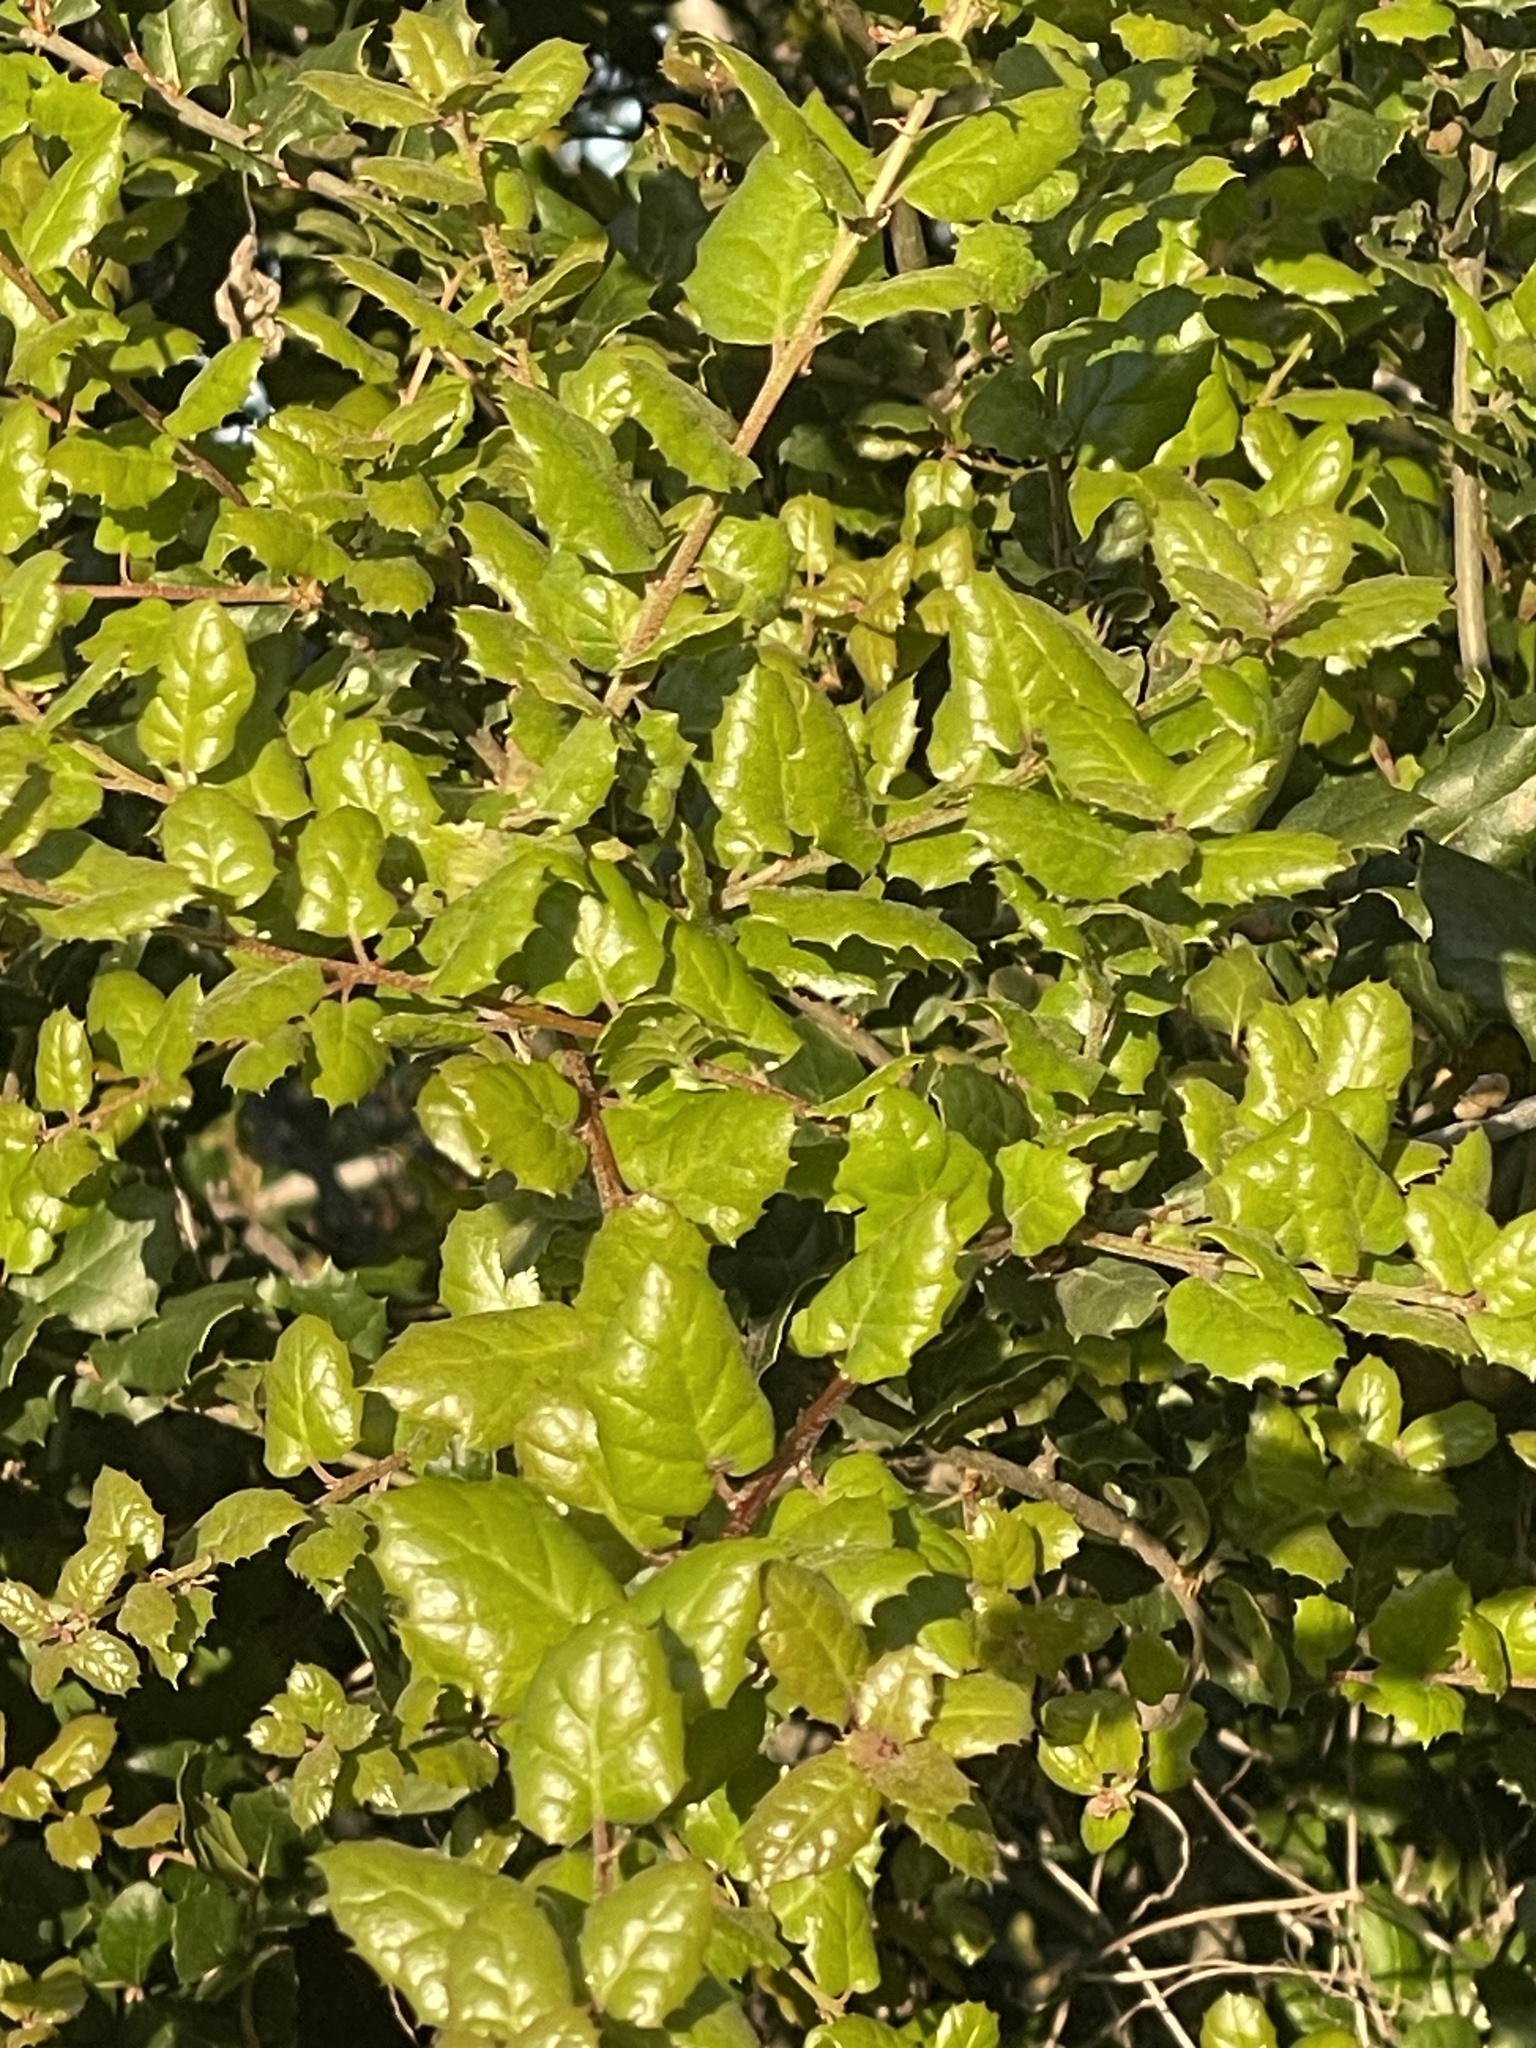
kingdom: Plantae
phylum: Tracheophyta
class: Magnoliopsida
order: Fagales
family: Fagaceae
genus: Quercus
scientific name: Quercus agrifolia
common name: California live oak
